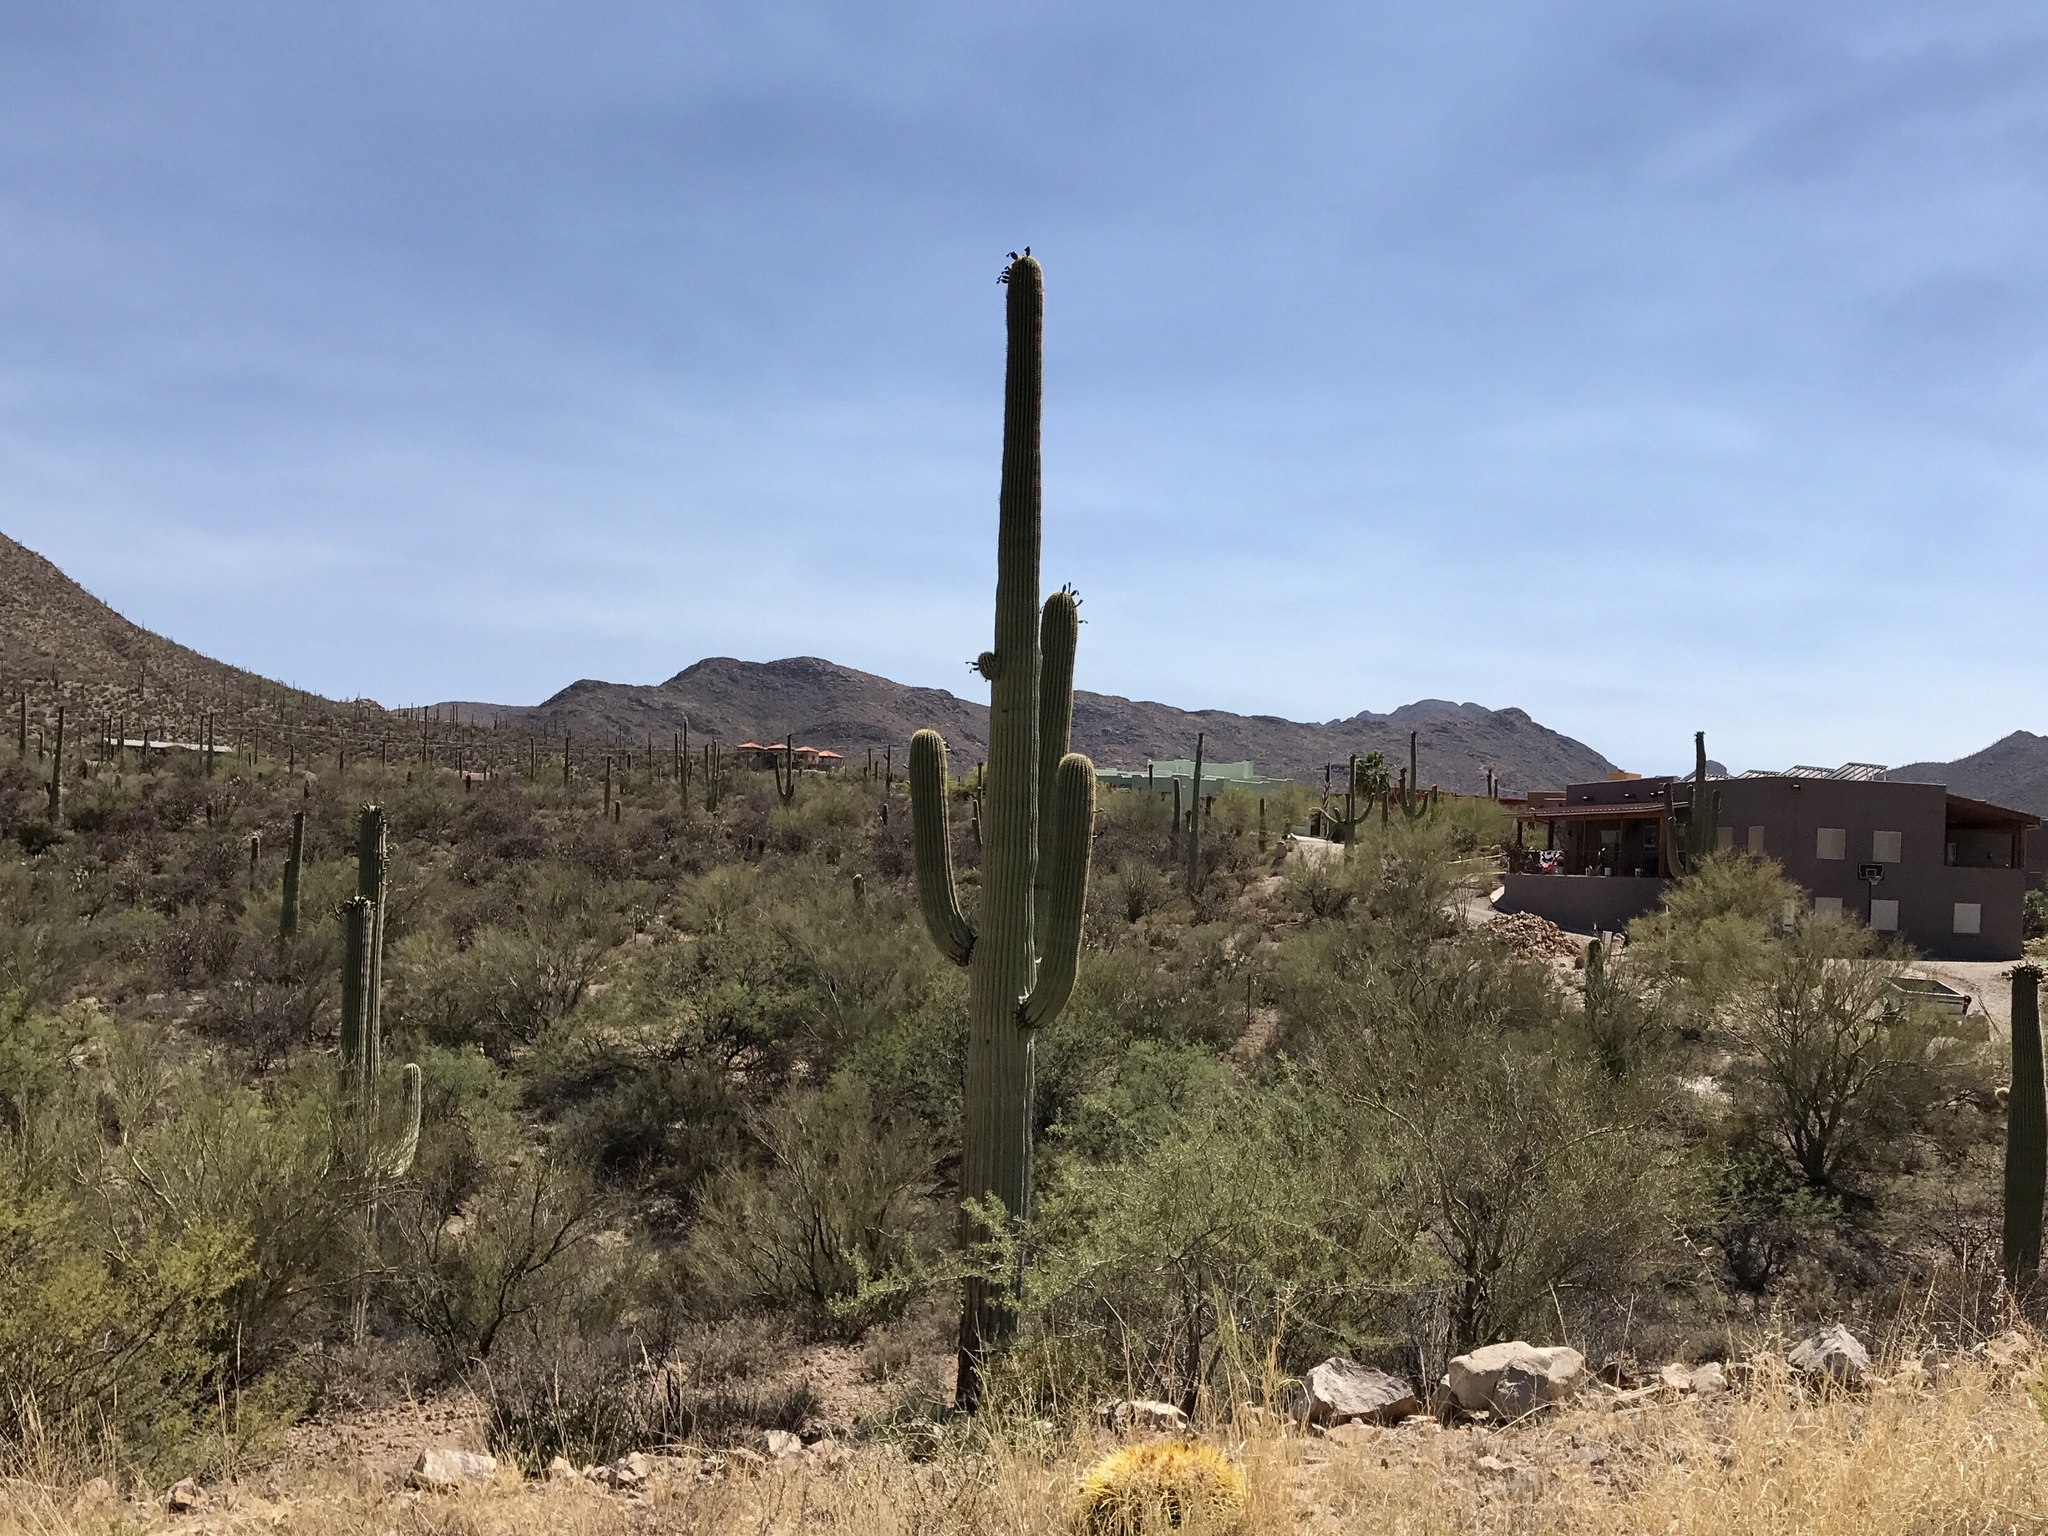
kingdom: Plantae
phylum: Tracheophyta
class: Magnoliopsida
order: Caryophyllales
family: Cactaceae
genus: Carnegiea
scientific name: Carnegiea gigantea
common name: Saguaro
